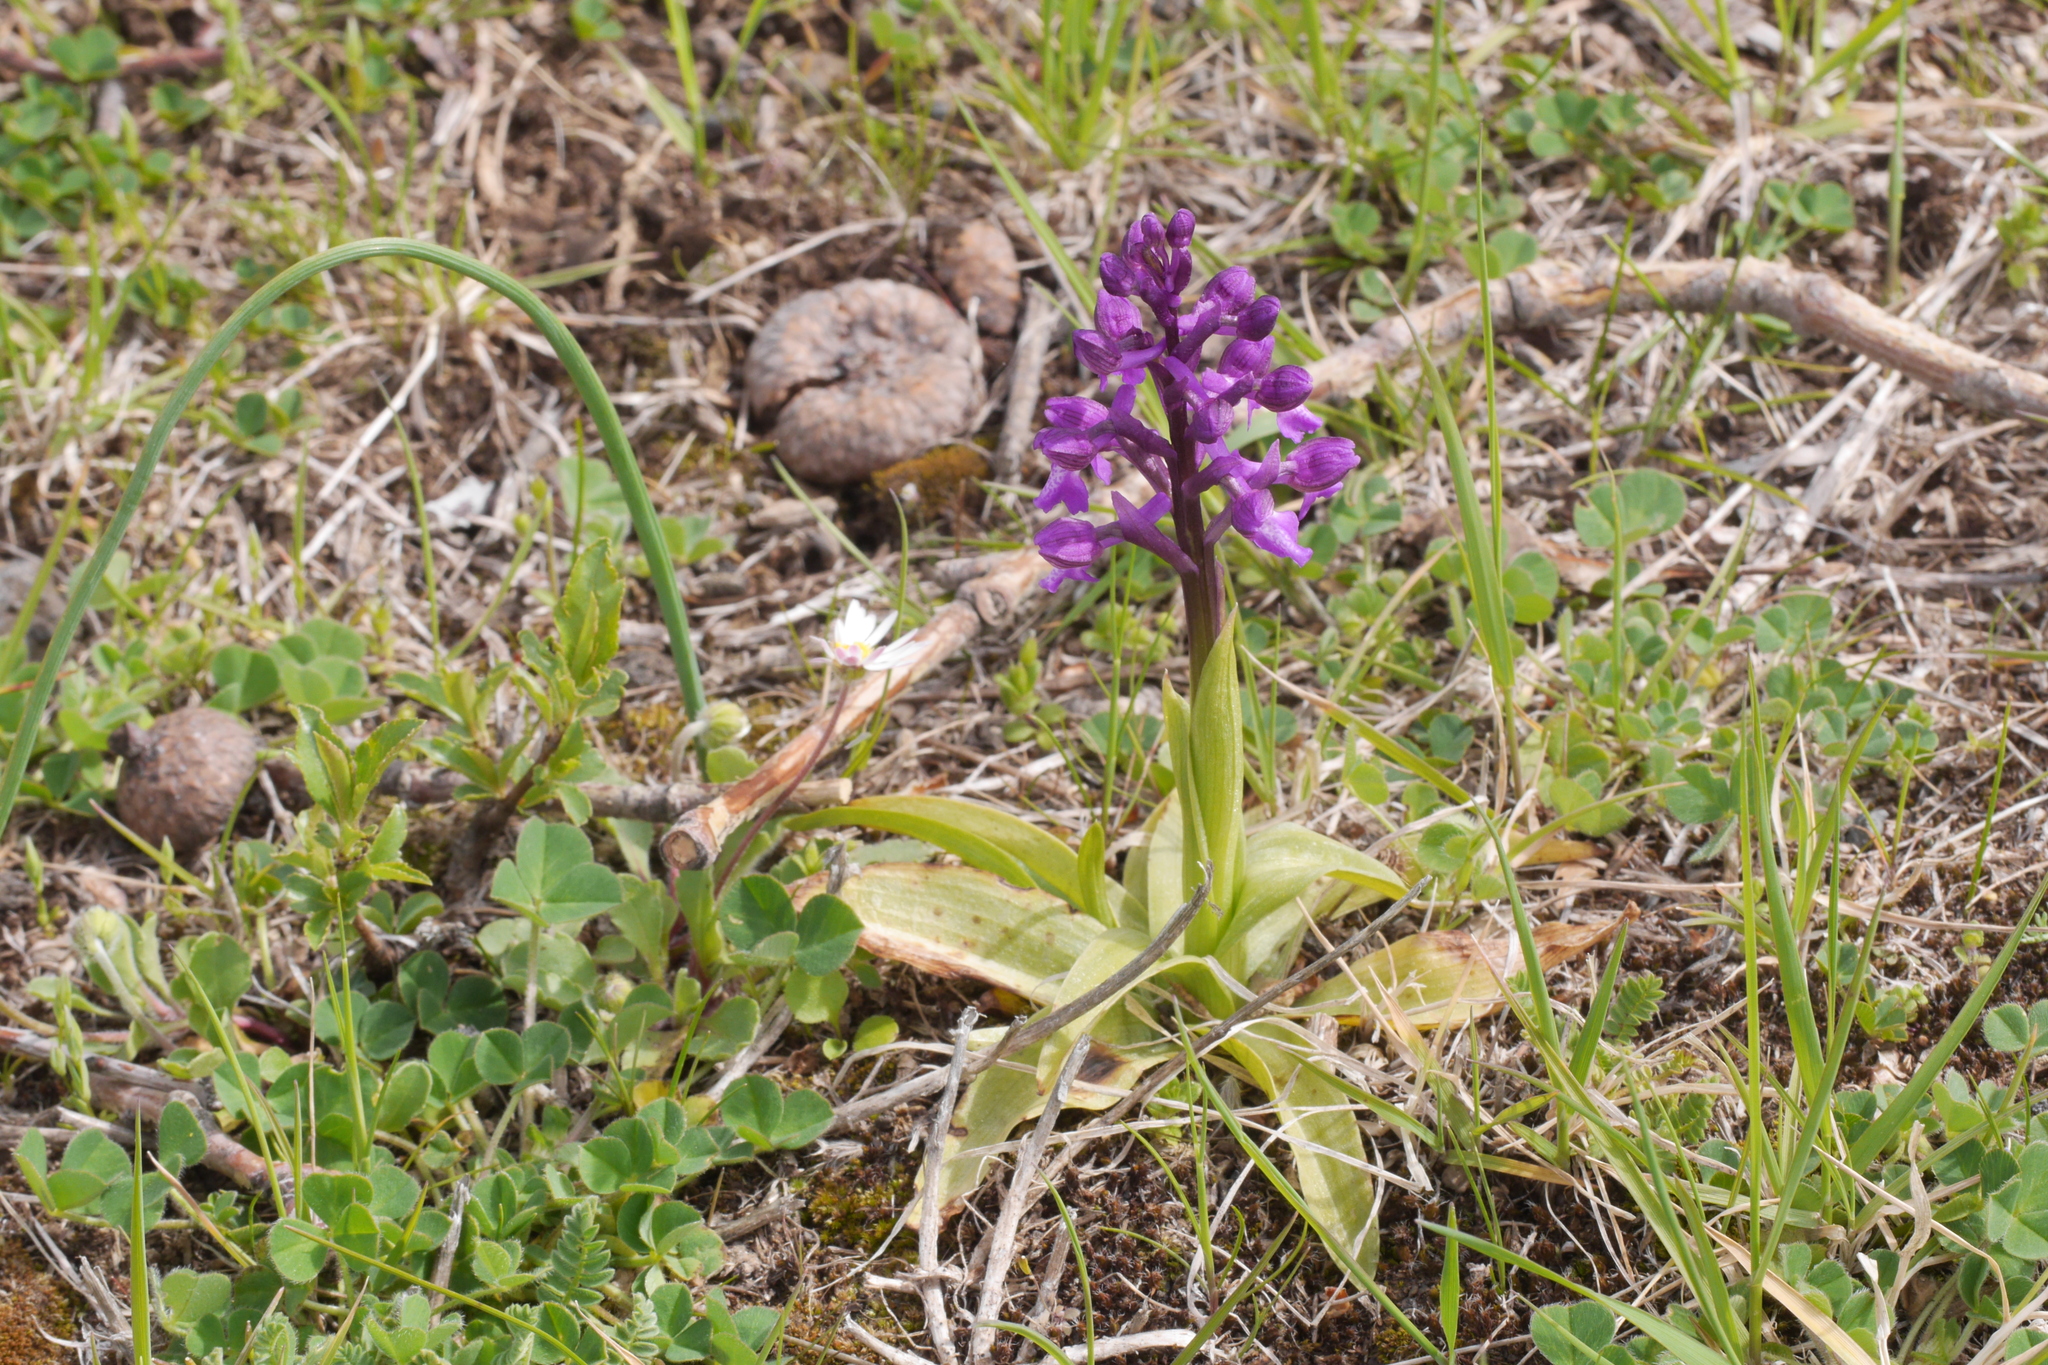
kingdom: Plantae
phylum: Tracheophyta
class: Liliopsida
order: Asparagales
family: Orchidaceae
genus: Anacamptis
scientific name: Anacamptis morio
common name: Green-winged orchid
